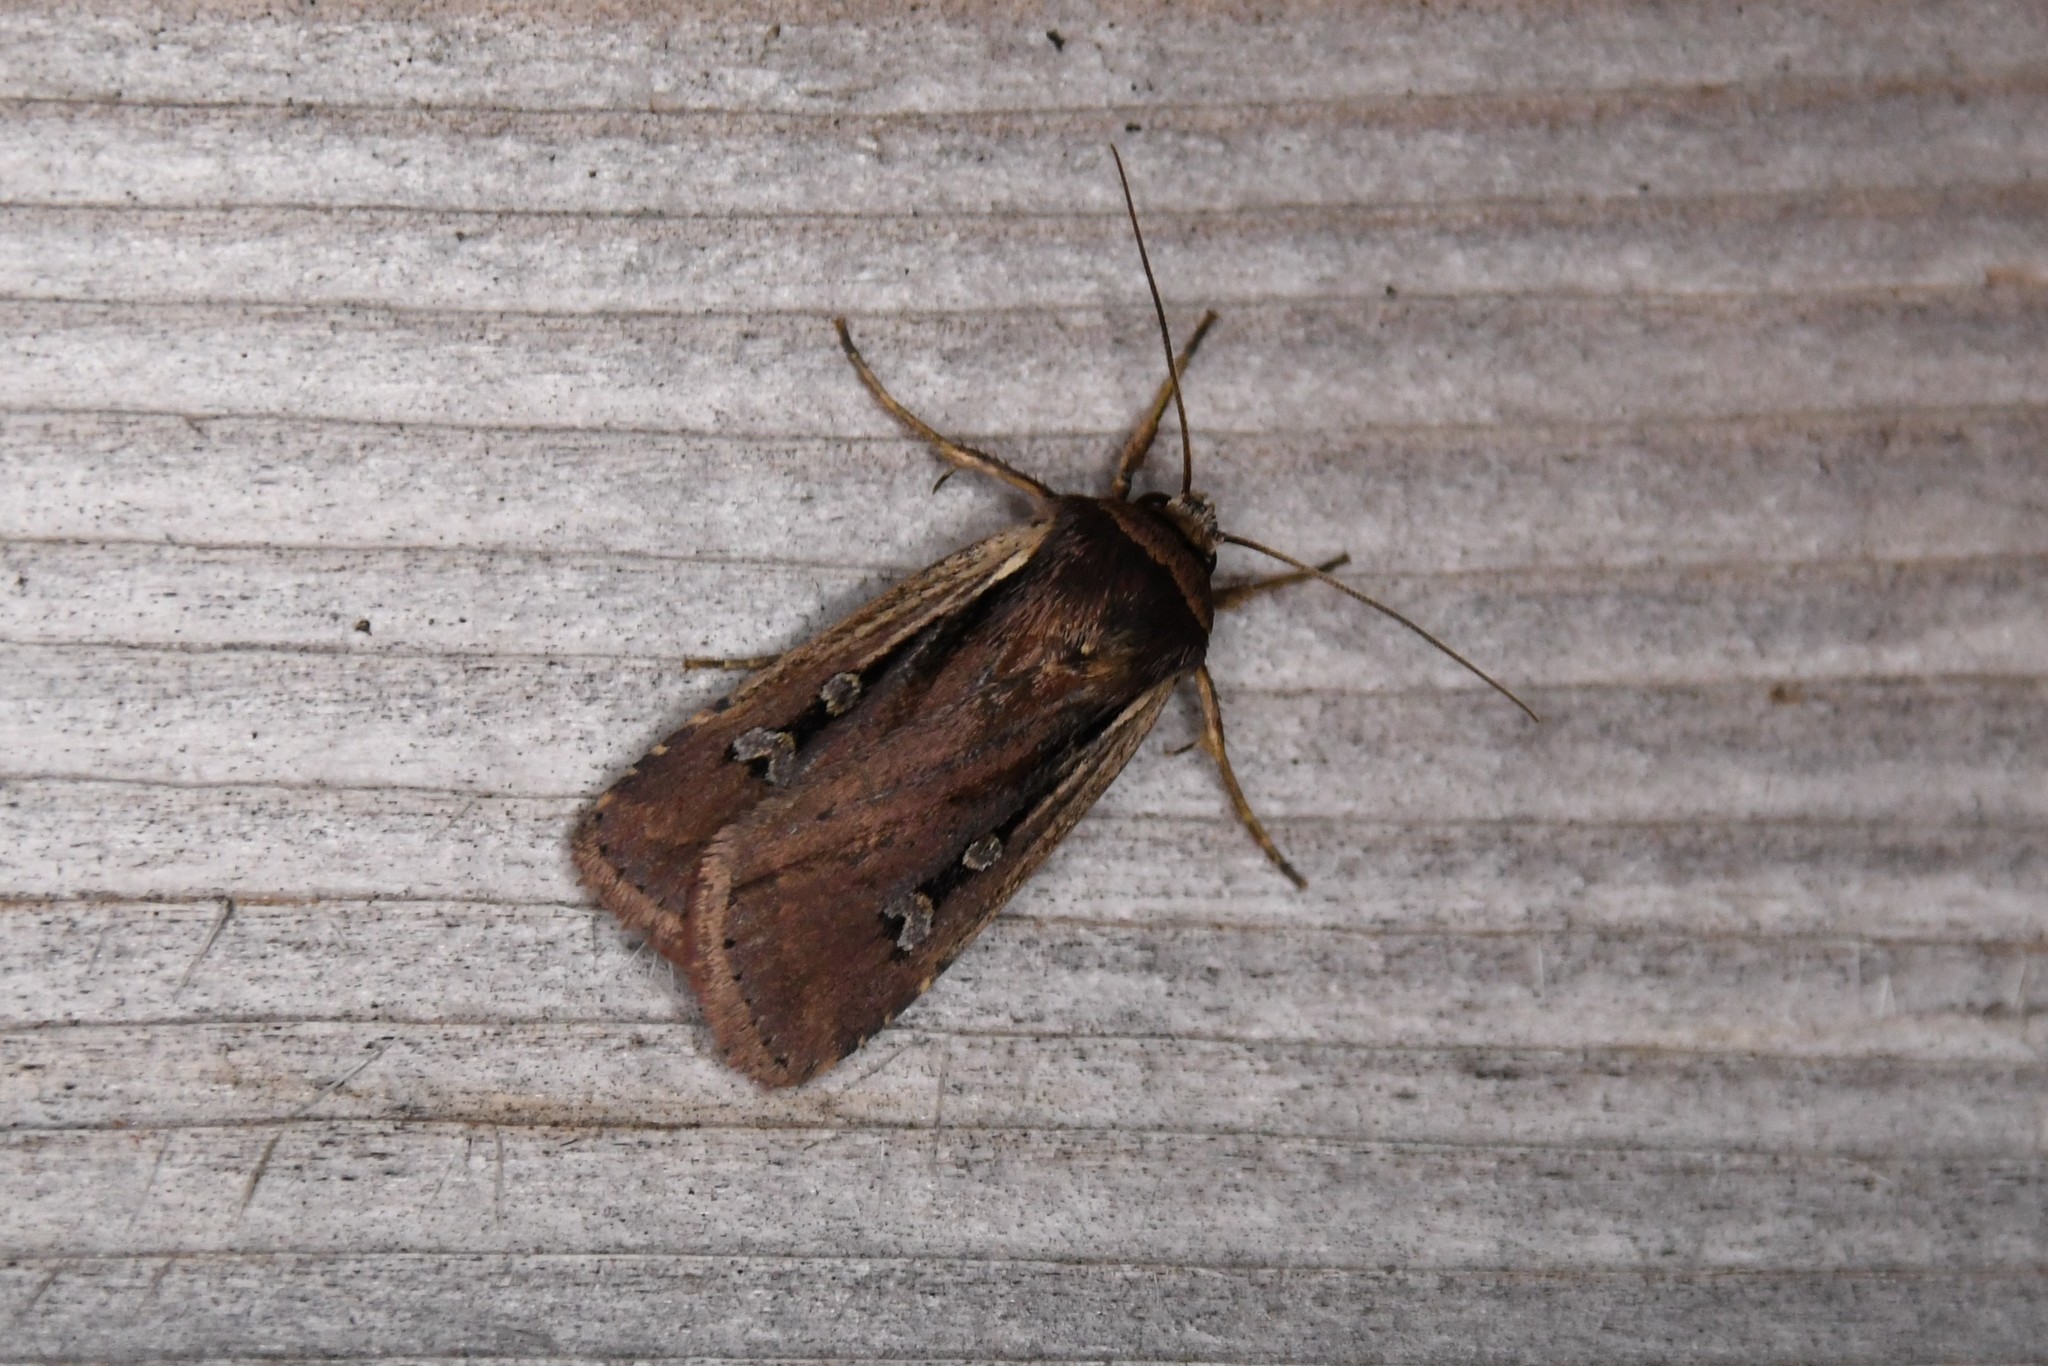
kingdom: Animalia
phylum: Arthropoda
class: Insecta
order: Lepidoptera
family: Noctuidae
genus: Ochropleura
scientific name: Ochropleura implecta
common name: Flame-shouldered dart
